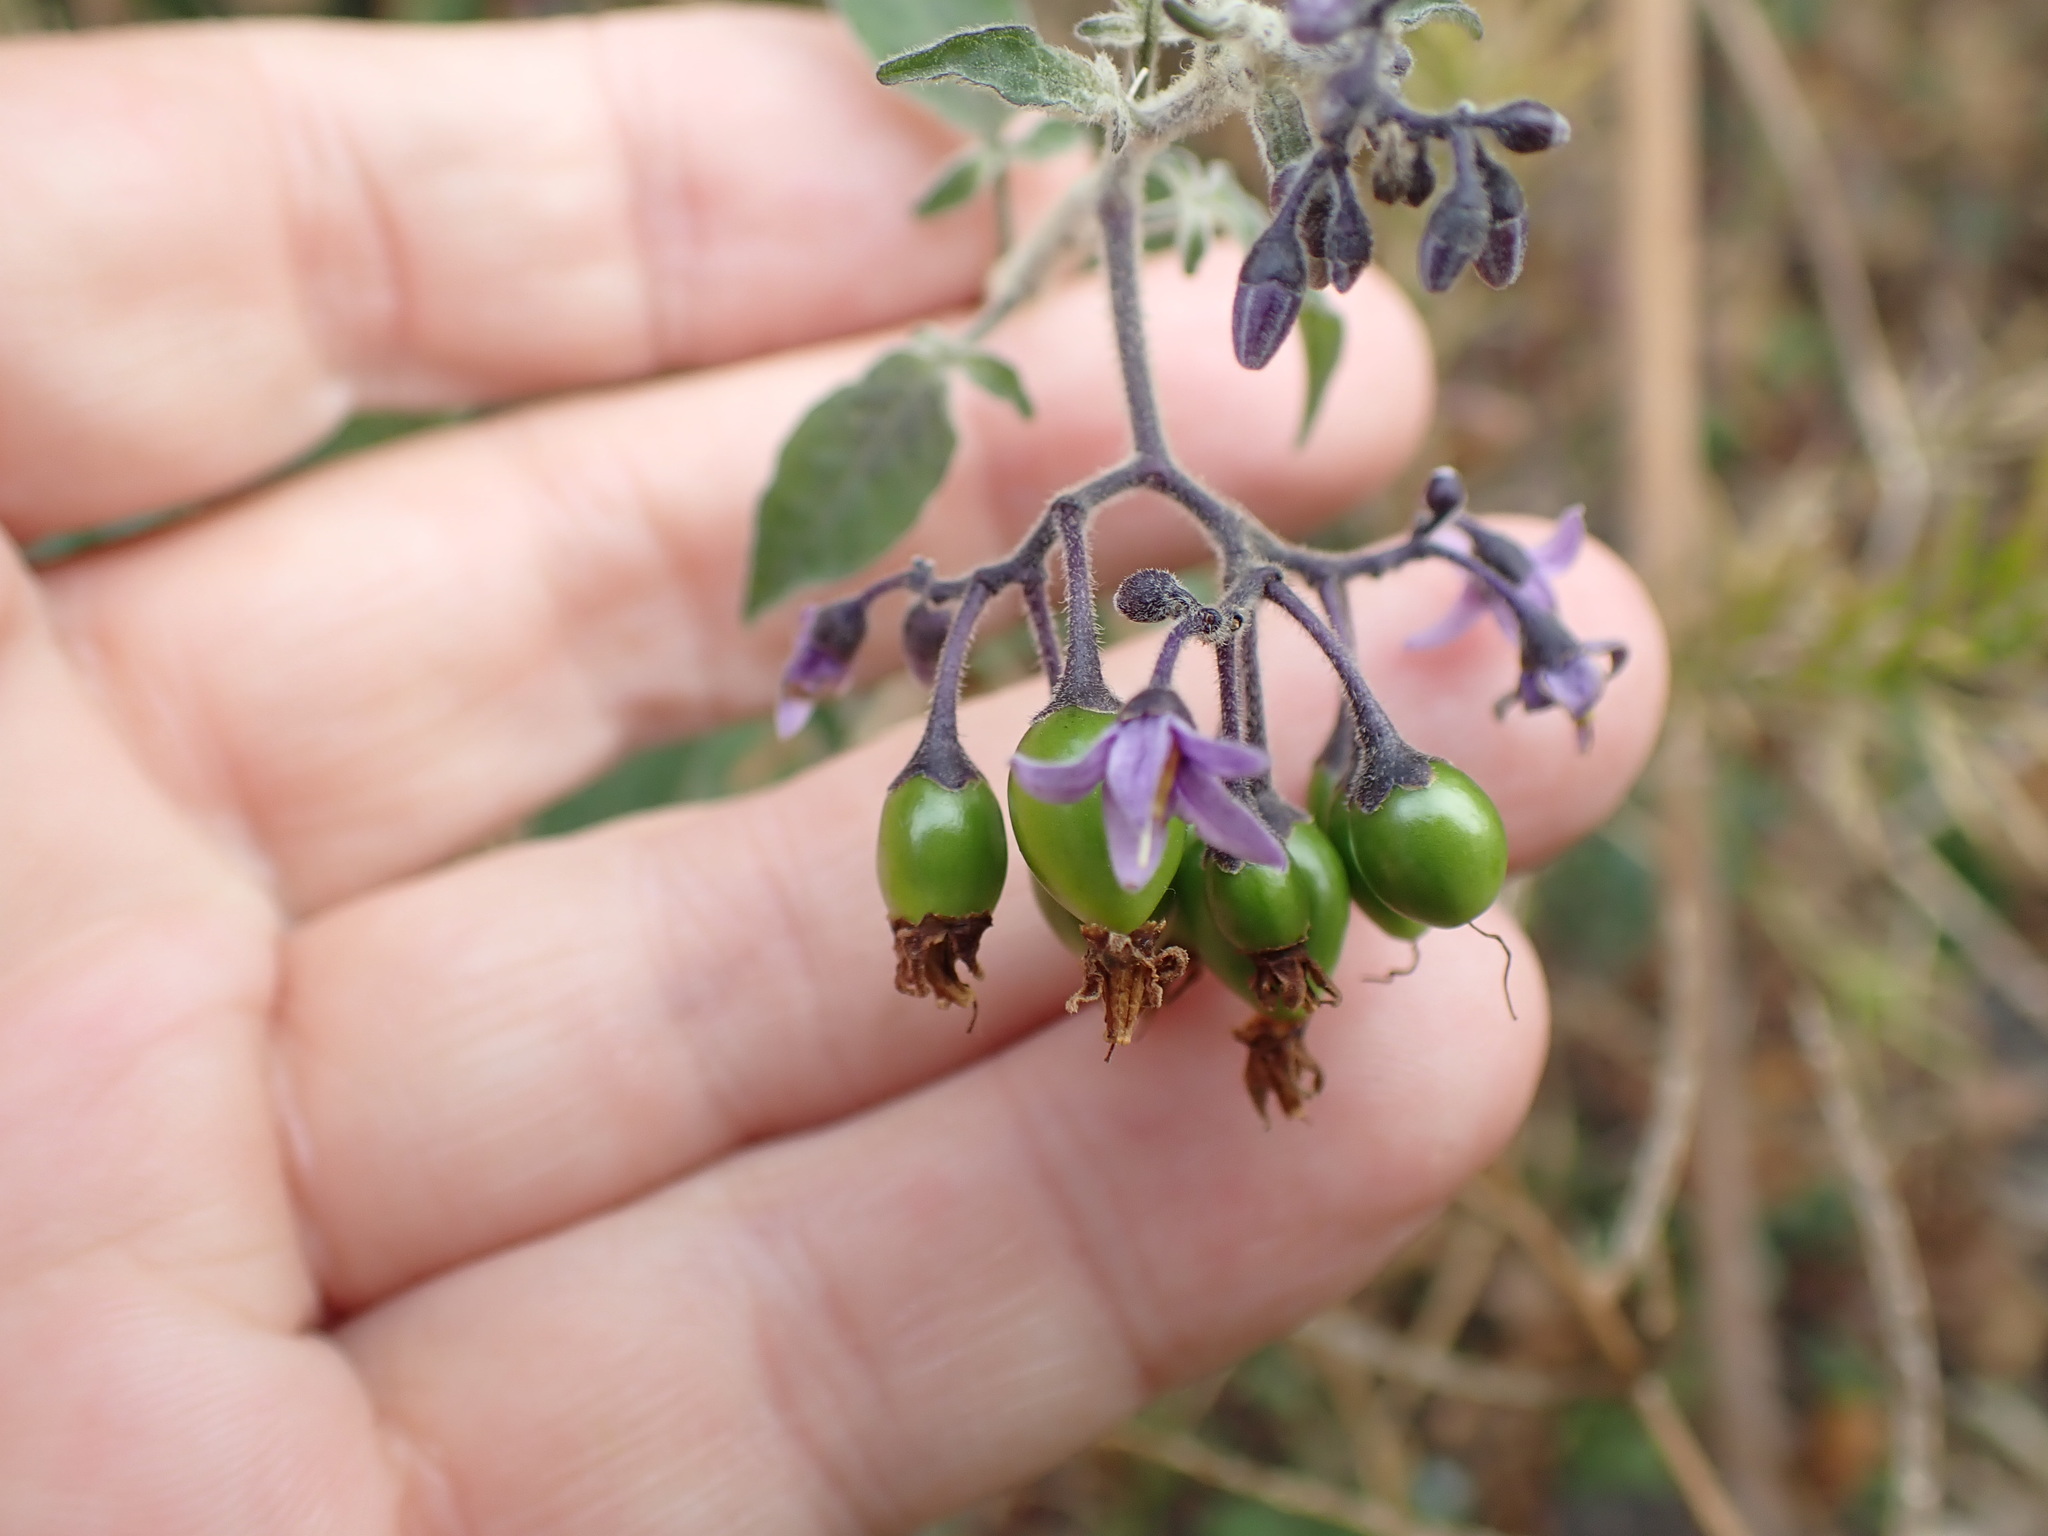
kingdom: Plantae
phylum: Tracheophyta
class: Magnoliopsida
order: Solanales
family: Solanaceae
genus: Solanum
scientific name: Solanum dulcamara
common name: Climbing nightshade
